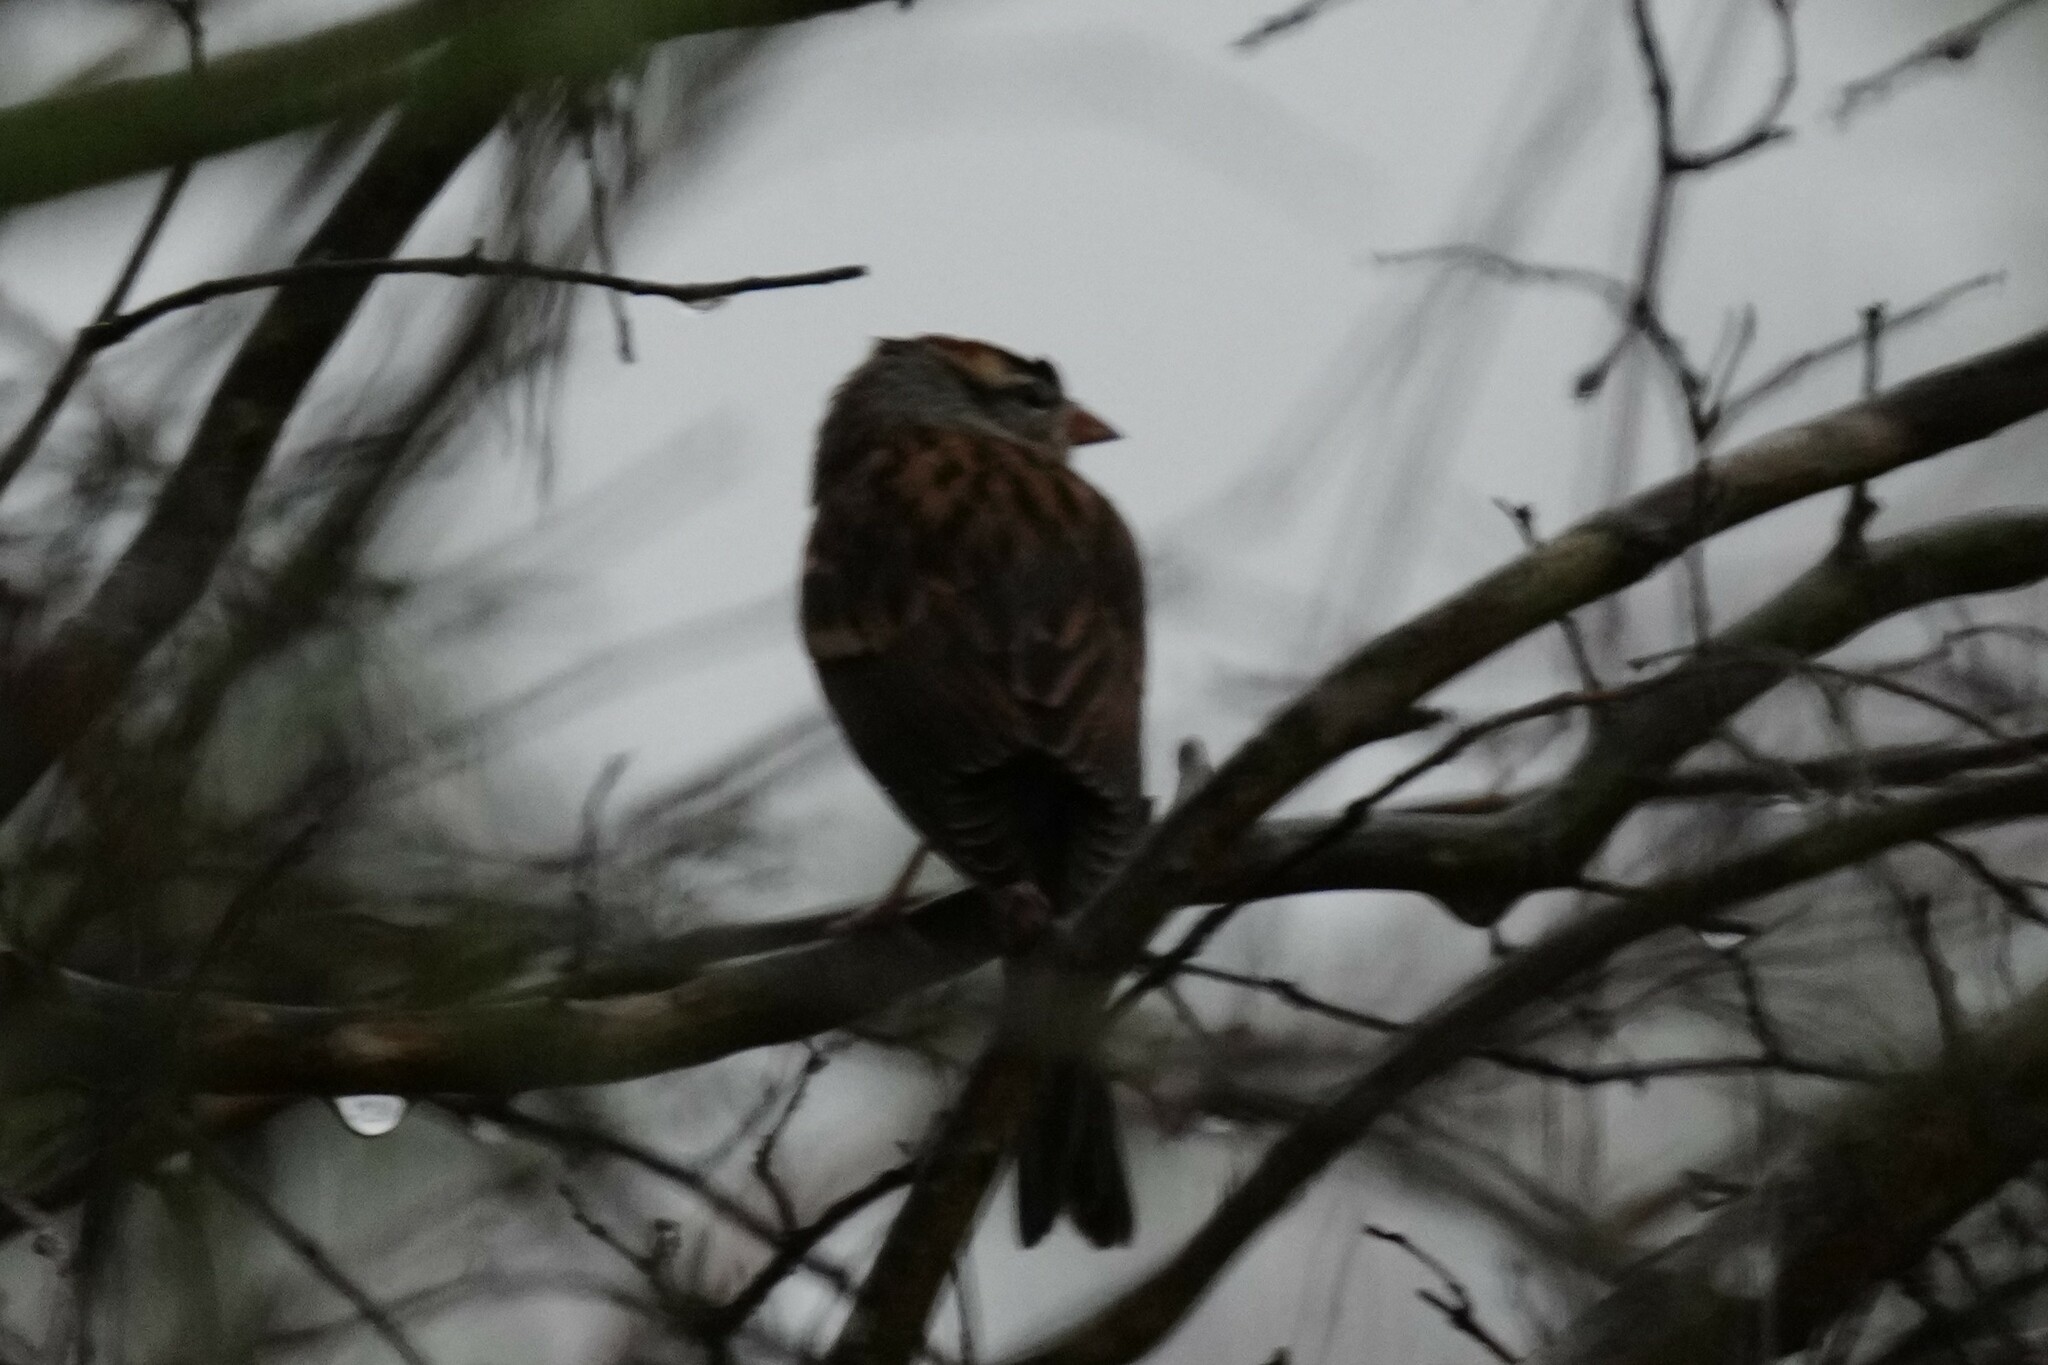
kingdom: Animalia
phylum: Chordata
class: Aves
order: Passeriformes
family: Passerellidae
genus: Spizella
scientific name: Spizella passerina
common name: Chipping sparrow
